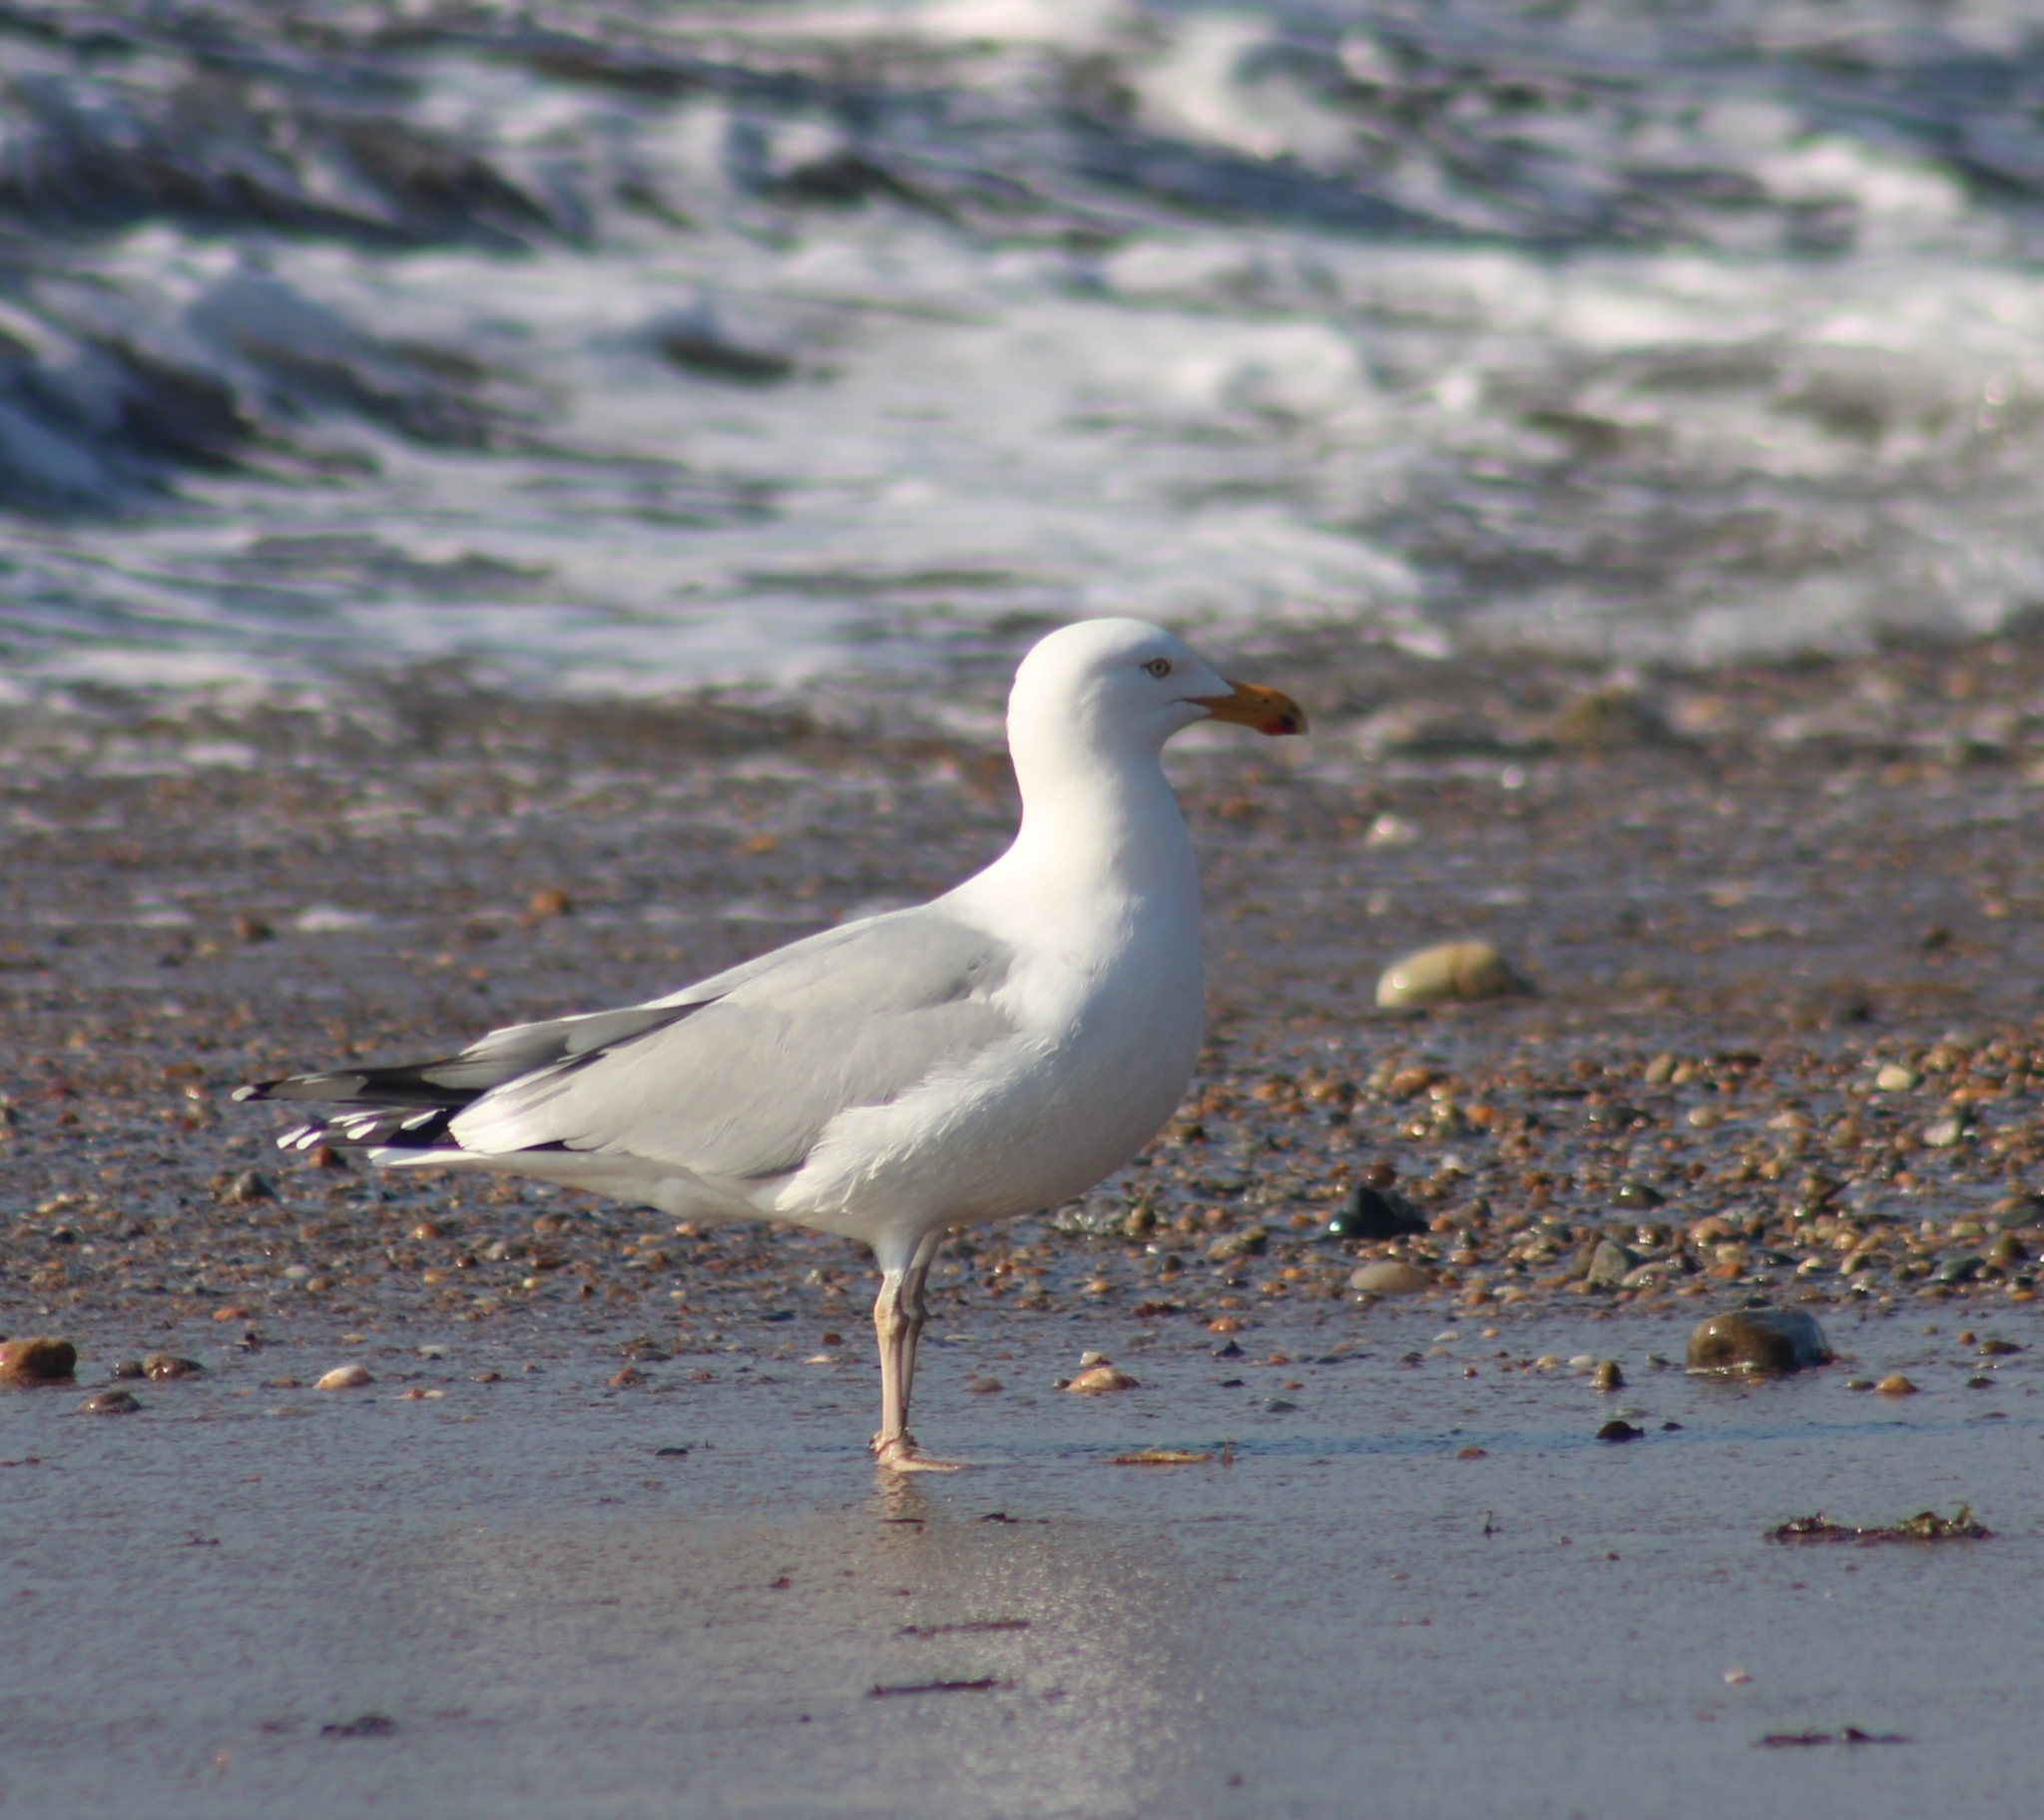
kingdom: Animalia
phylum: Chordata
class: Aves
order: Charadriiformes
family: Laridae
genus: Larus
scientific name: Larus argentatus
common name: Herring gull
